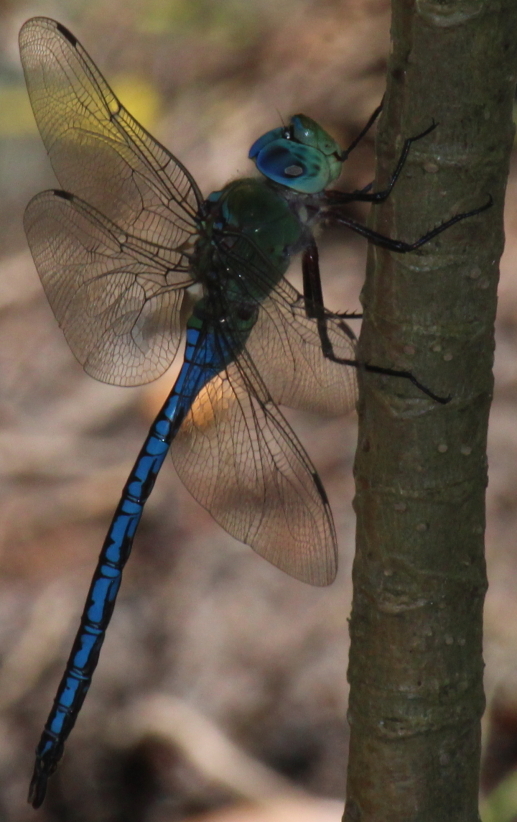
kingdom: Animalia
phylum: Arthropoda
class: Insecta
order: Odonata
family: Aeshnidae
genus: Anax
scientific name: Anax imperator
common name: Emperor dragonfly
